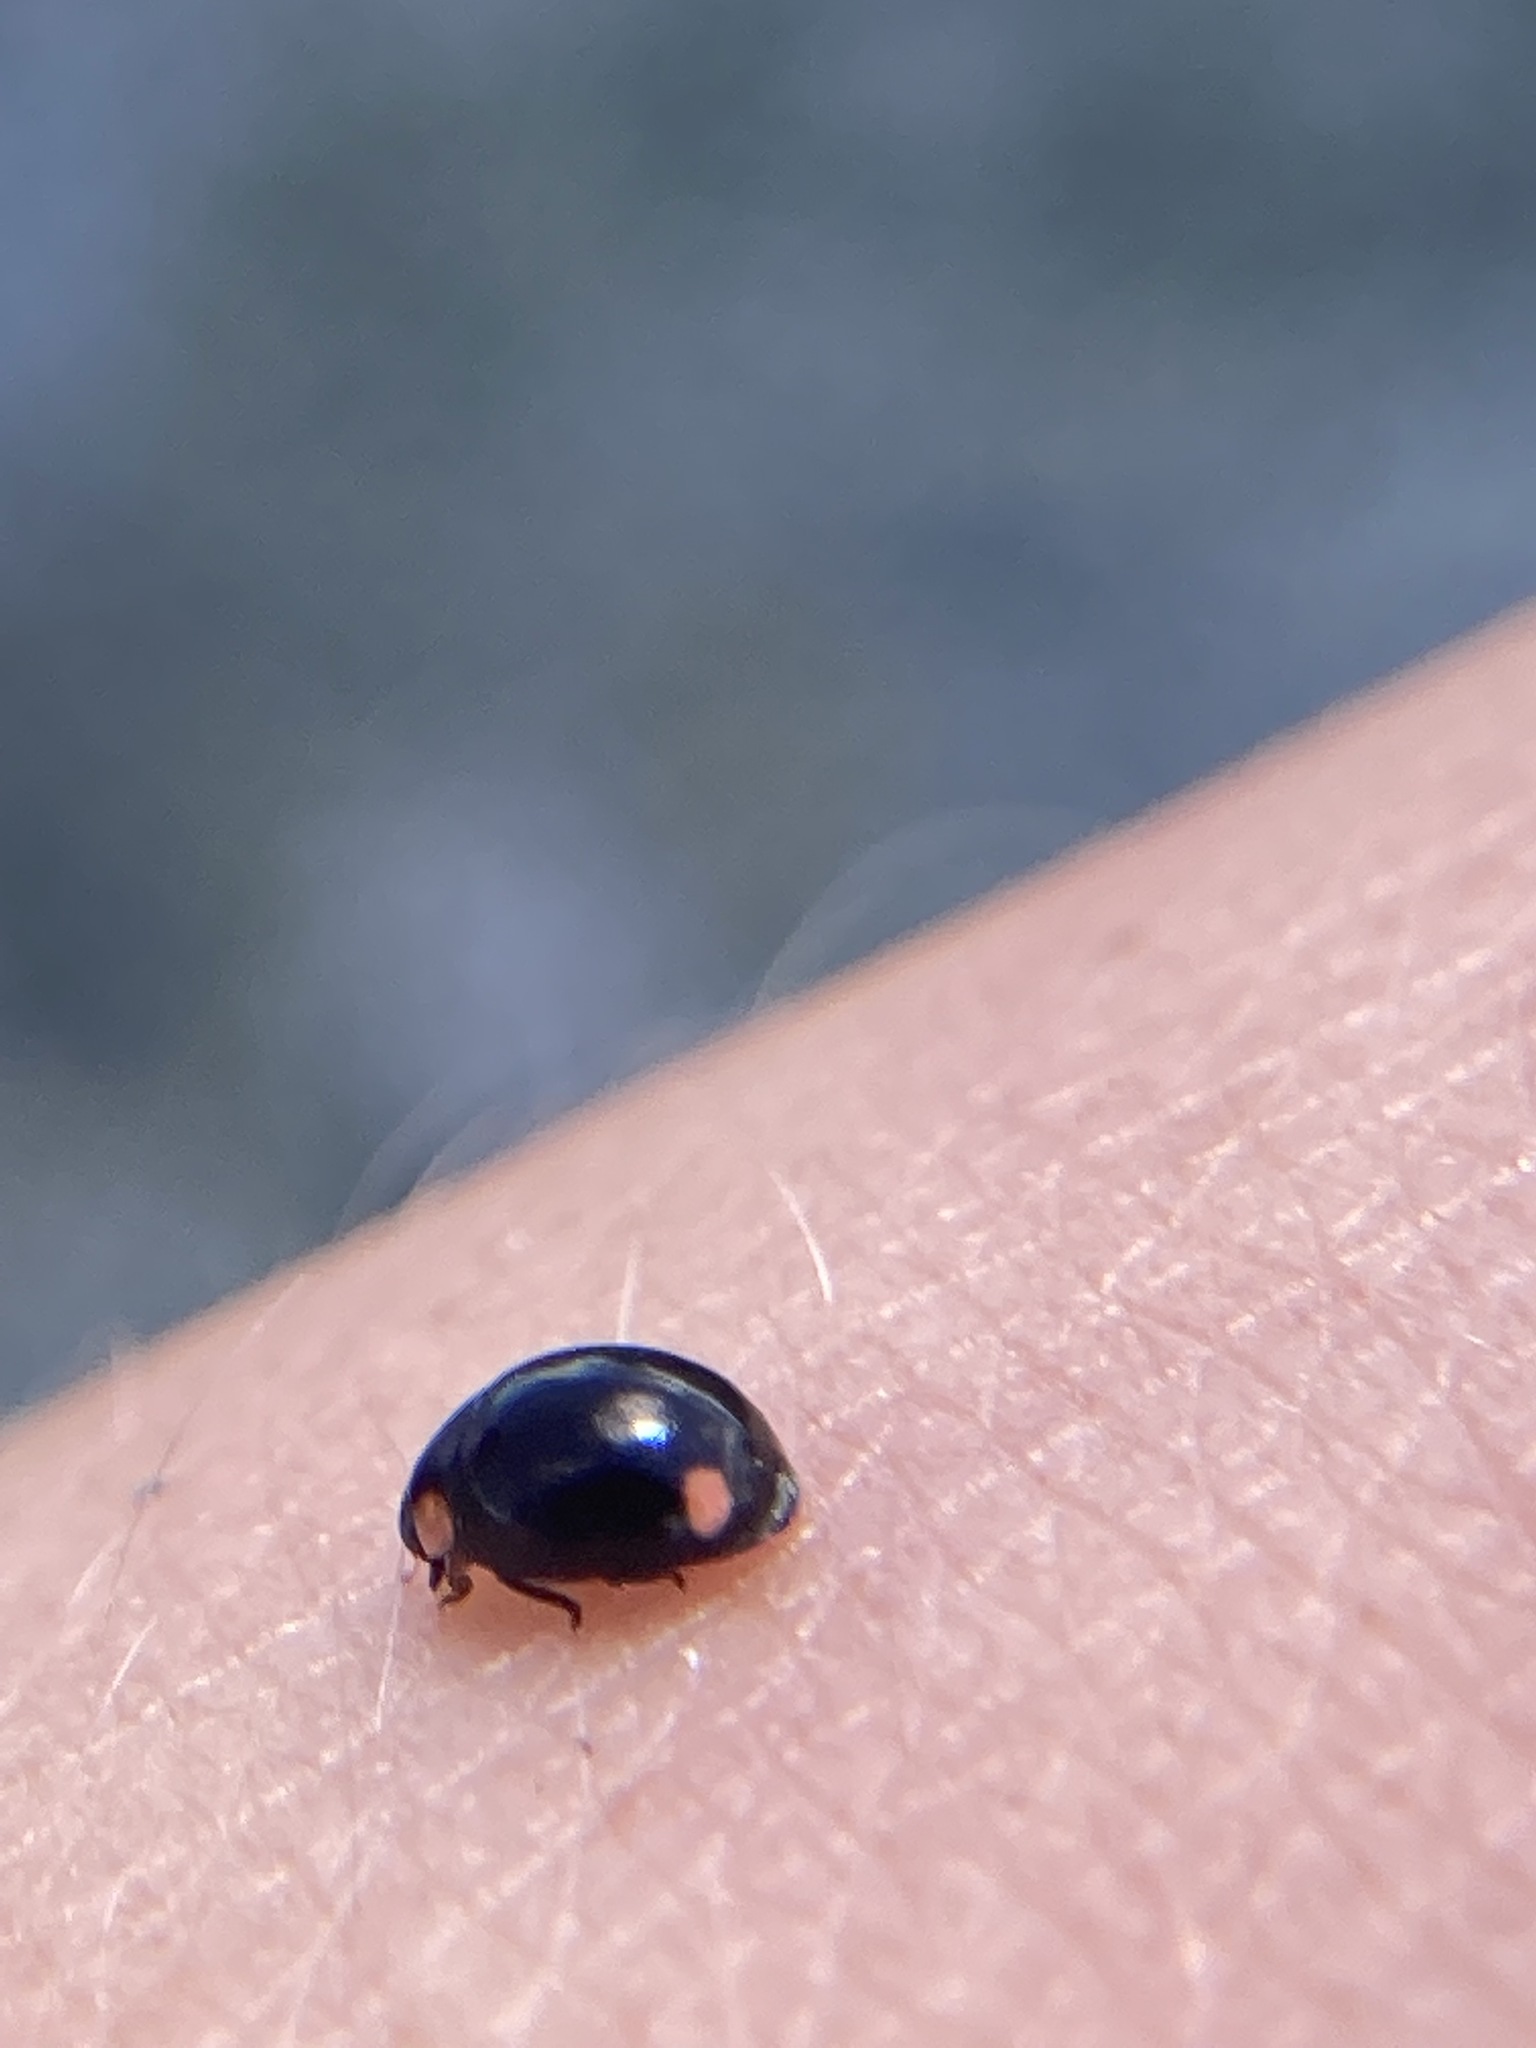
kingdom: Animalia
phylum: Arthropoda
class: Insecta
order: Coleoptera
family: Coccinellidae
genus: Hyperaspis
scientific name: Hyperaspis bigeminata
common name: Bigeminate sigil lady beetle
